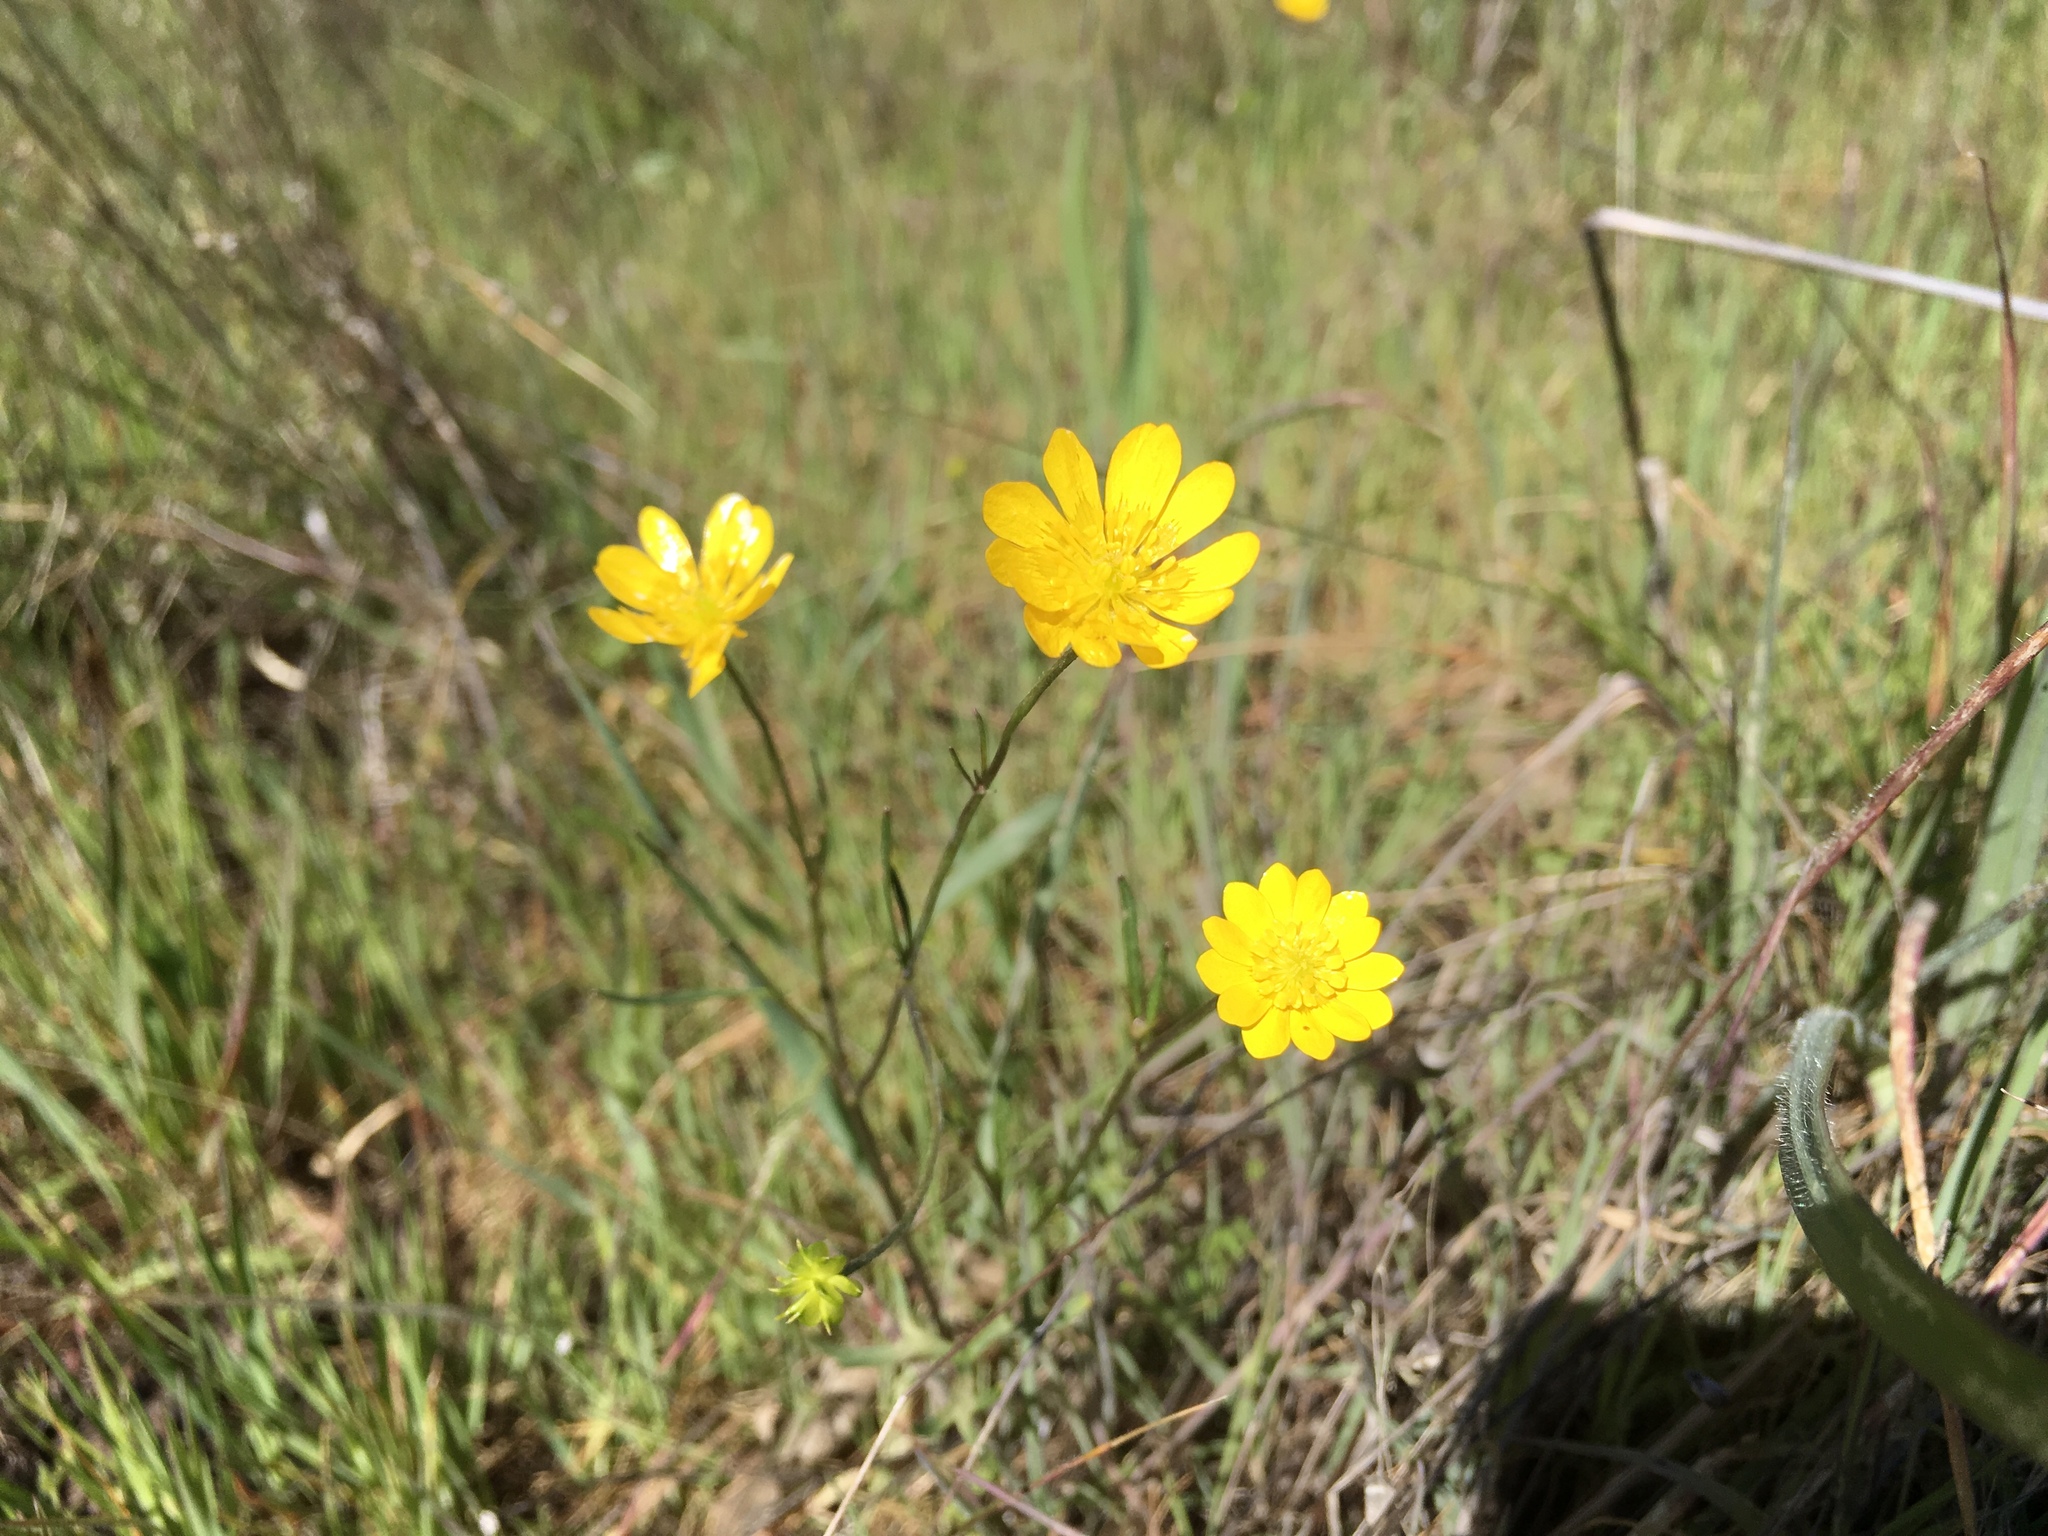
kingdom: Plantae
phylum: Tracheophyta
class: Magnoliopsida
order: Ranunculales
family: Ranunculaceae
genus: Ranunculus
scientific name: Ranunculus californicus
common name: California buttercup
